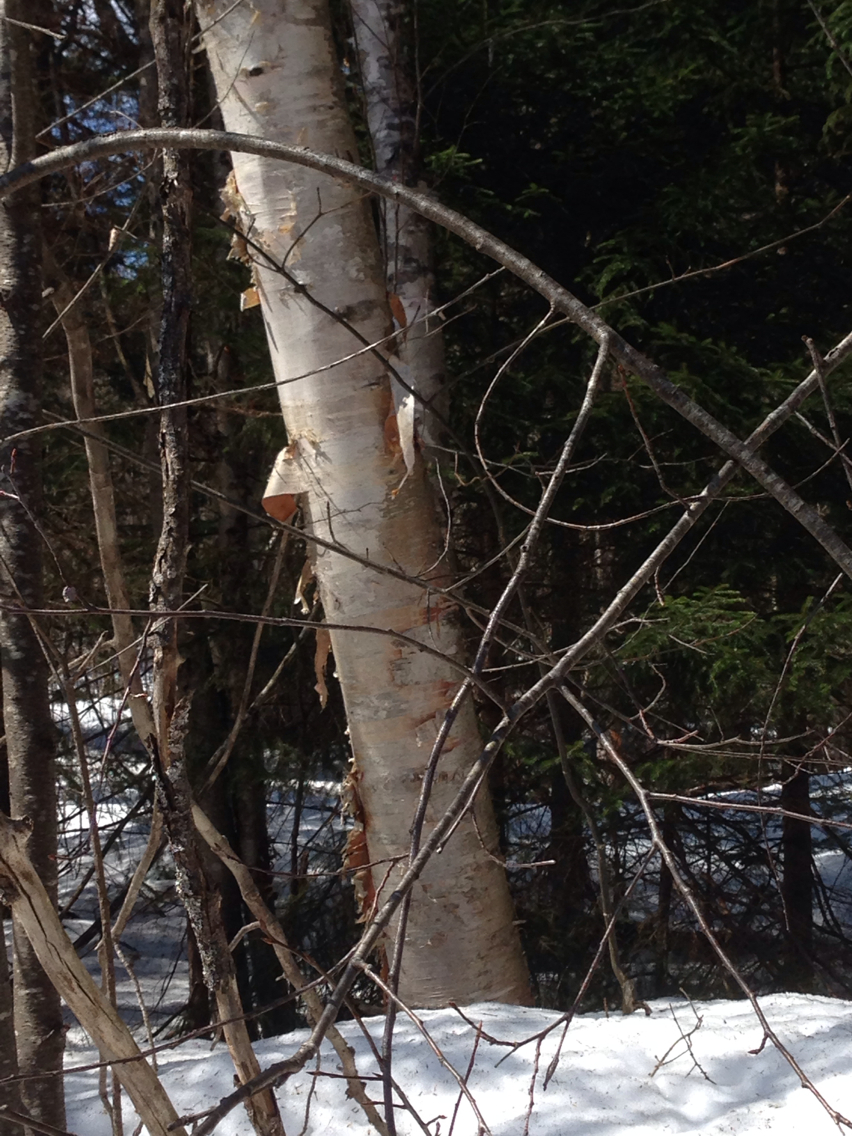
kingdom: Plantae
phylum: Tracheophyta
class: Magnoliopsida
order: Fagales
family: Betulaceae
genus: Betula
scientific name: Betula papyrifera
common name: Paper birch
